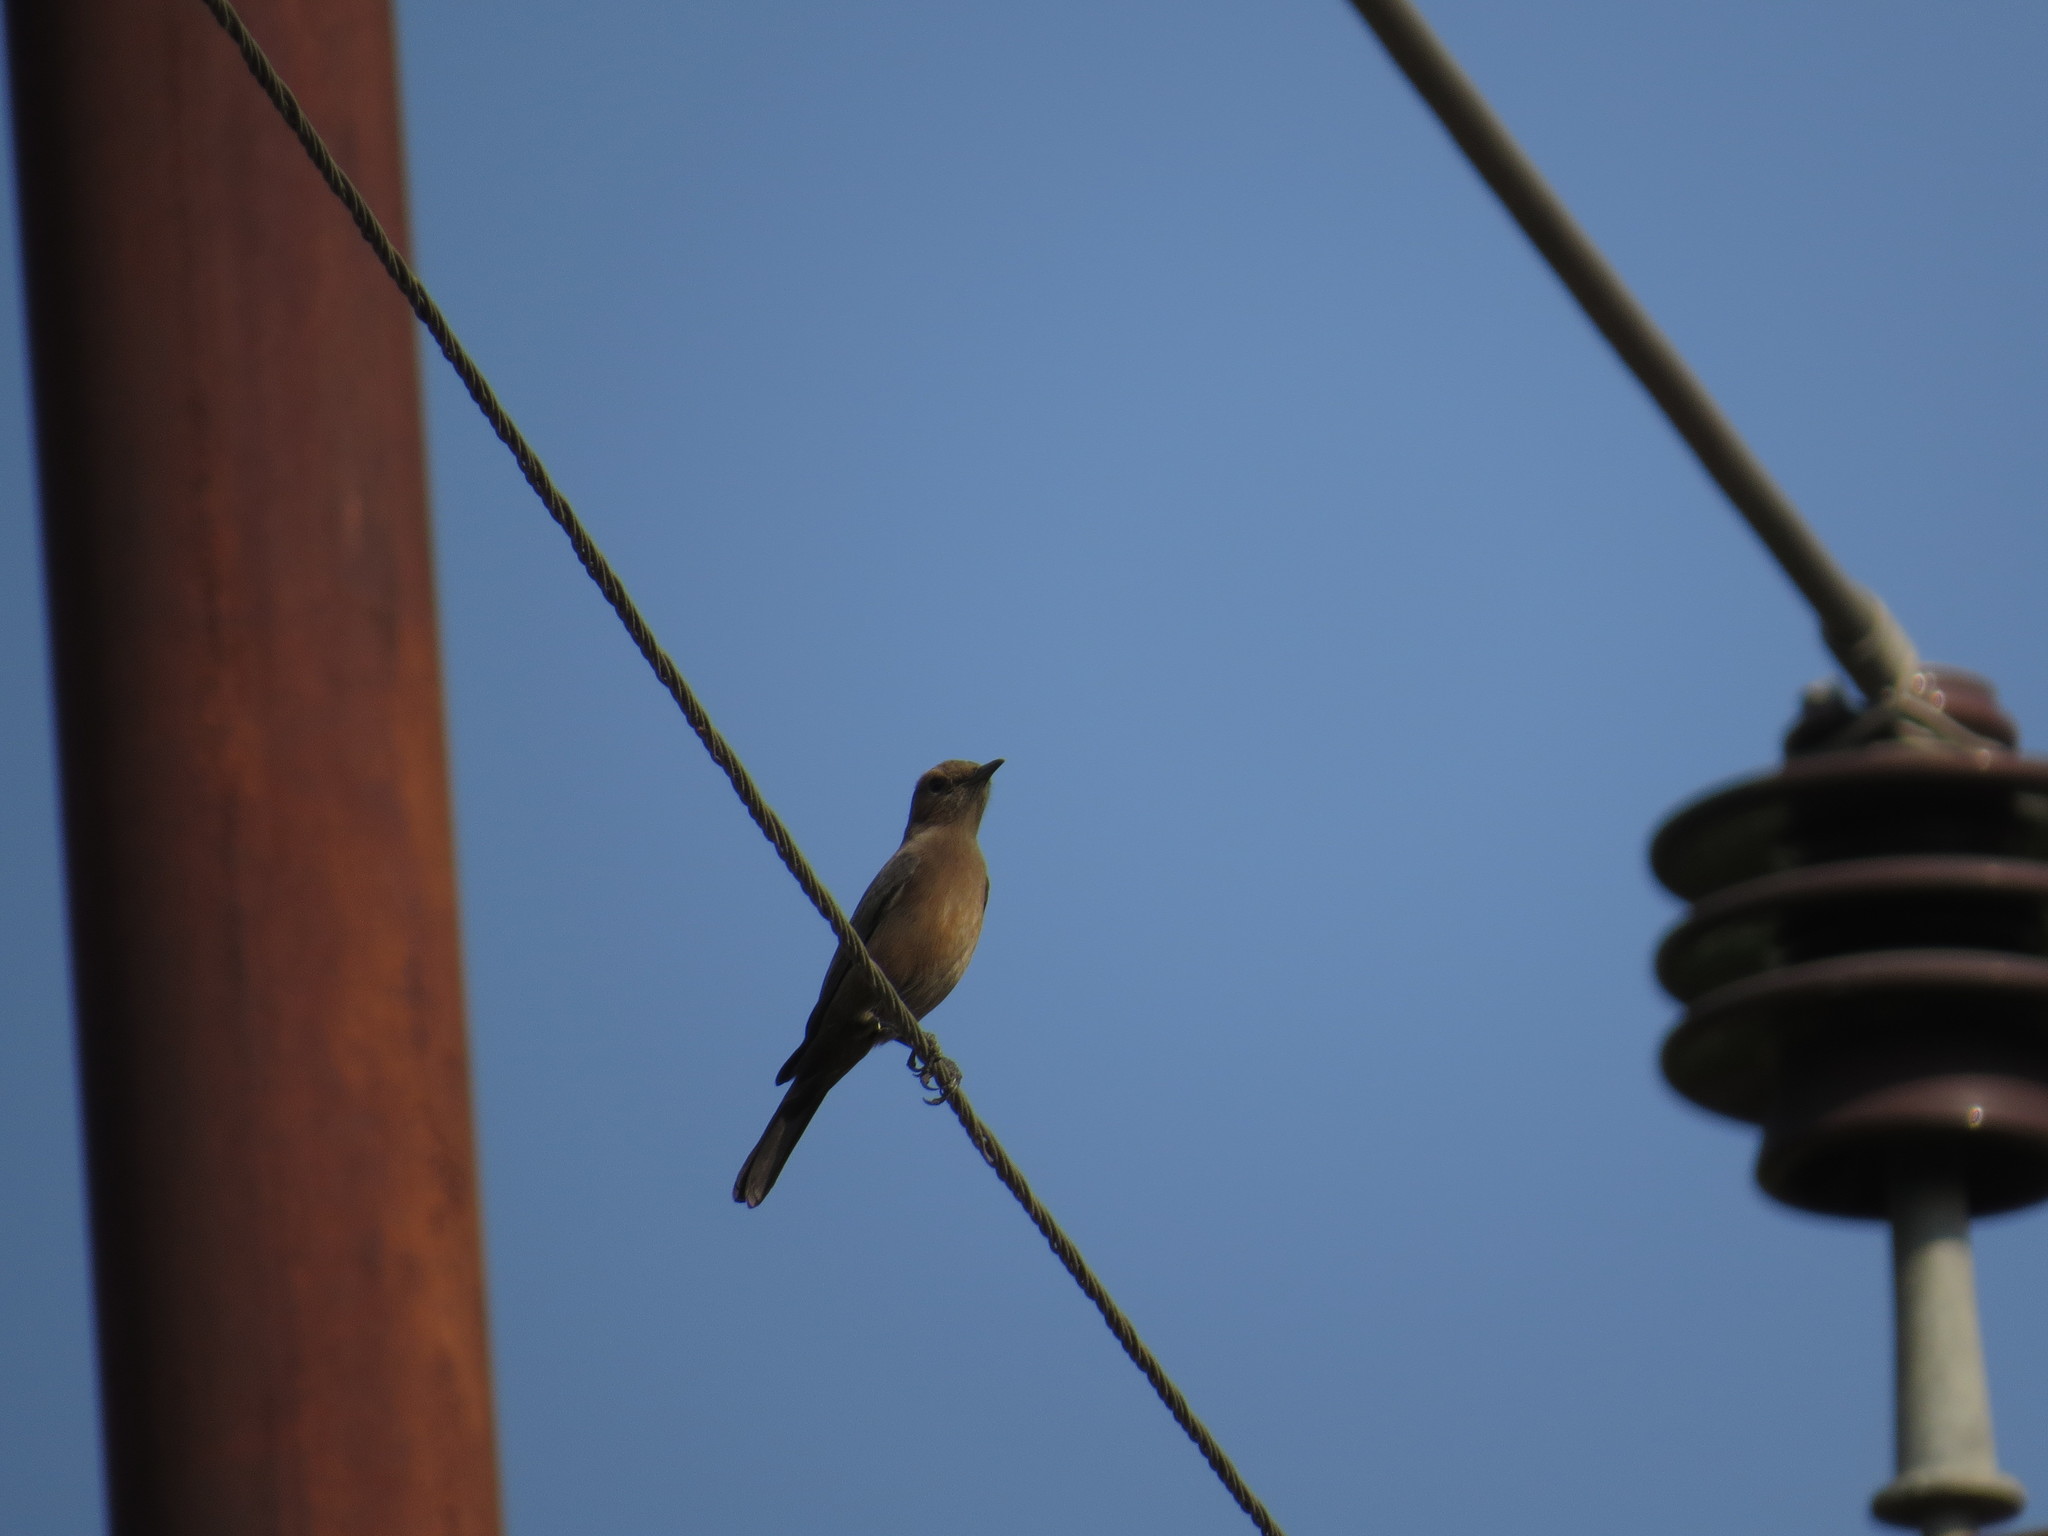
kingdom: Animalia
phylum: Chordata
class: Aves
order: Passeriformes
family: Muscicapidae
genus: Oenanthe
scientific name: Oenanthe fusca
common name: Brown rock chat
